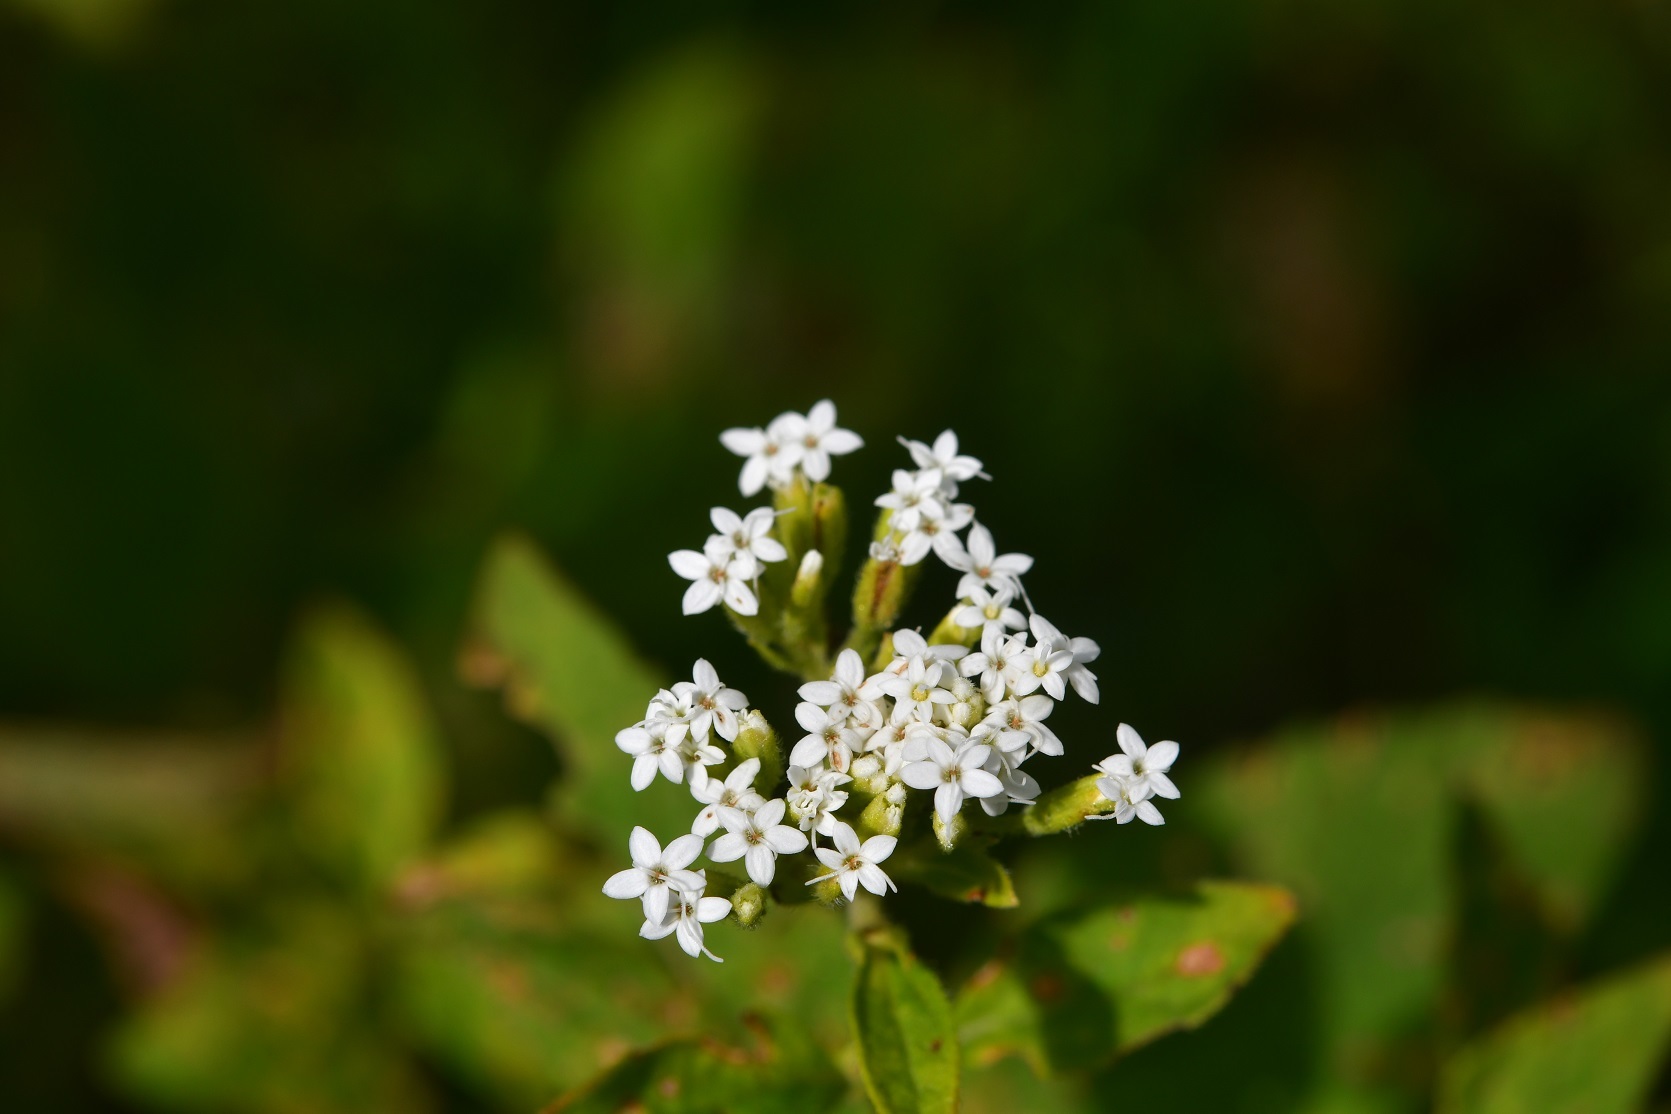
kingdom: Plantae
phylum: Tracheophyta
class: Magnoliopsida
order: Asterales
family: Asteraceae
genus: Stevia
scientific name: Stevia ovata
